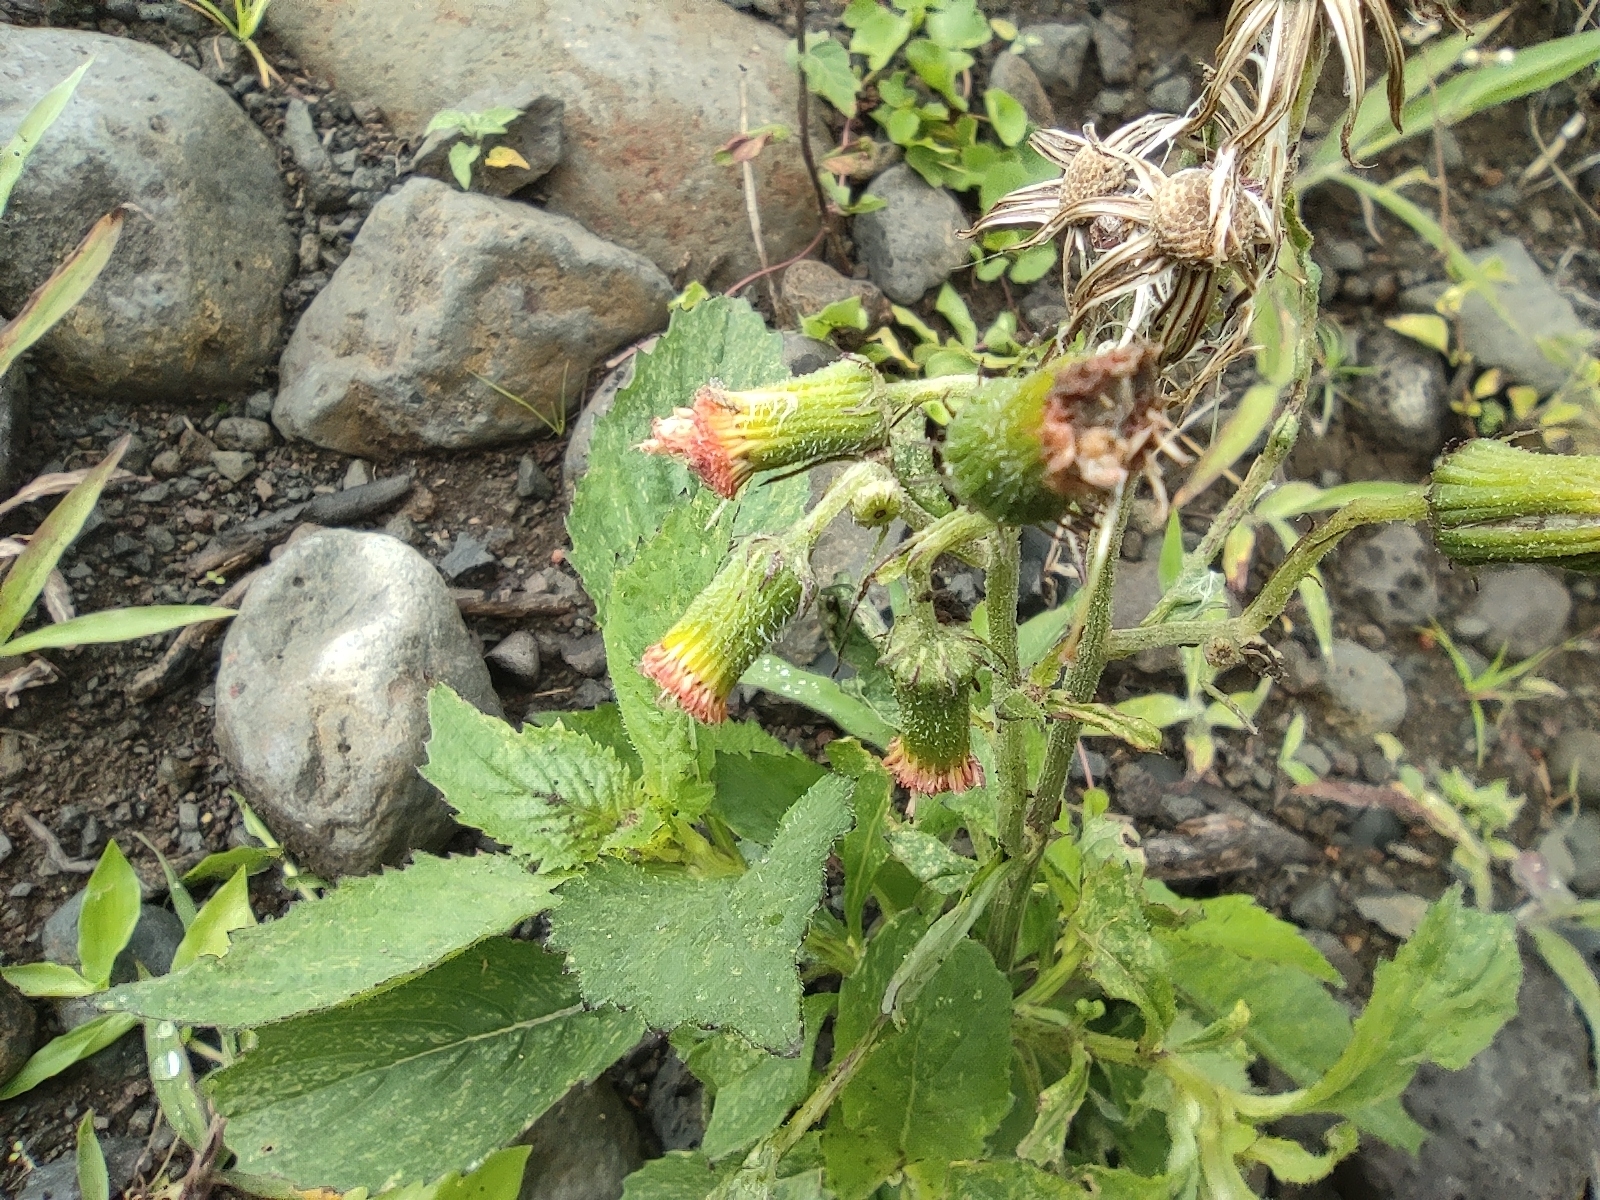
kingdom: Plantae
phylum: Tracheophyta
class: Magnoliopsida
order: Asterales
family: Asteraceae
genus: Crassocephalum
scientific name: Crassocephalum crepidioides
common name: Redflower ragleaf
